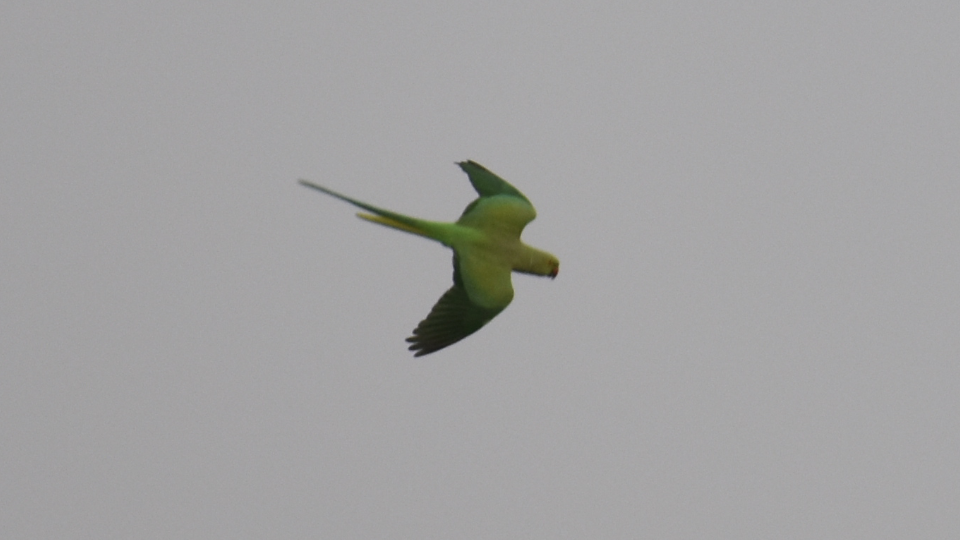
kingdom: Animalia
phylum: Chordata
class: Aves
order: Psittaciformes
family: Psittacidae
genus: Psittacula
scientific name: Psittacula krameri
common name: Rose-ringed parakeet
